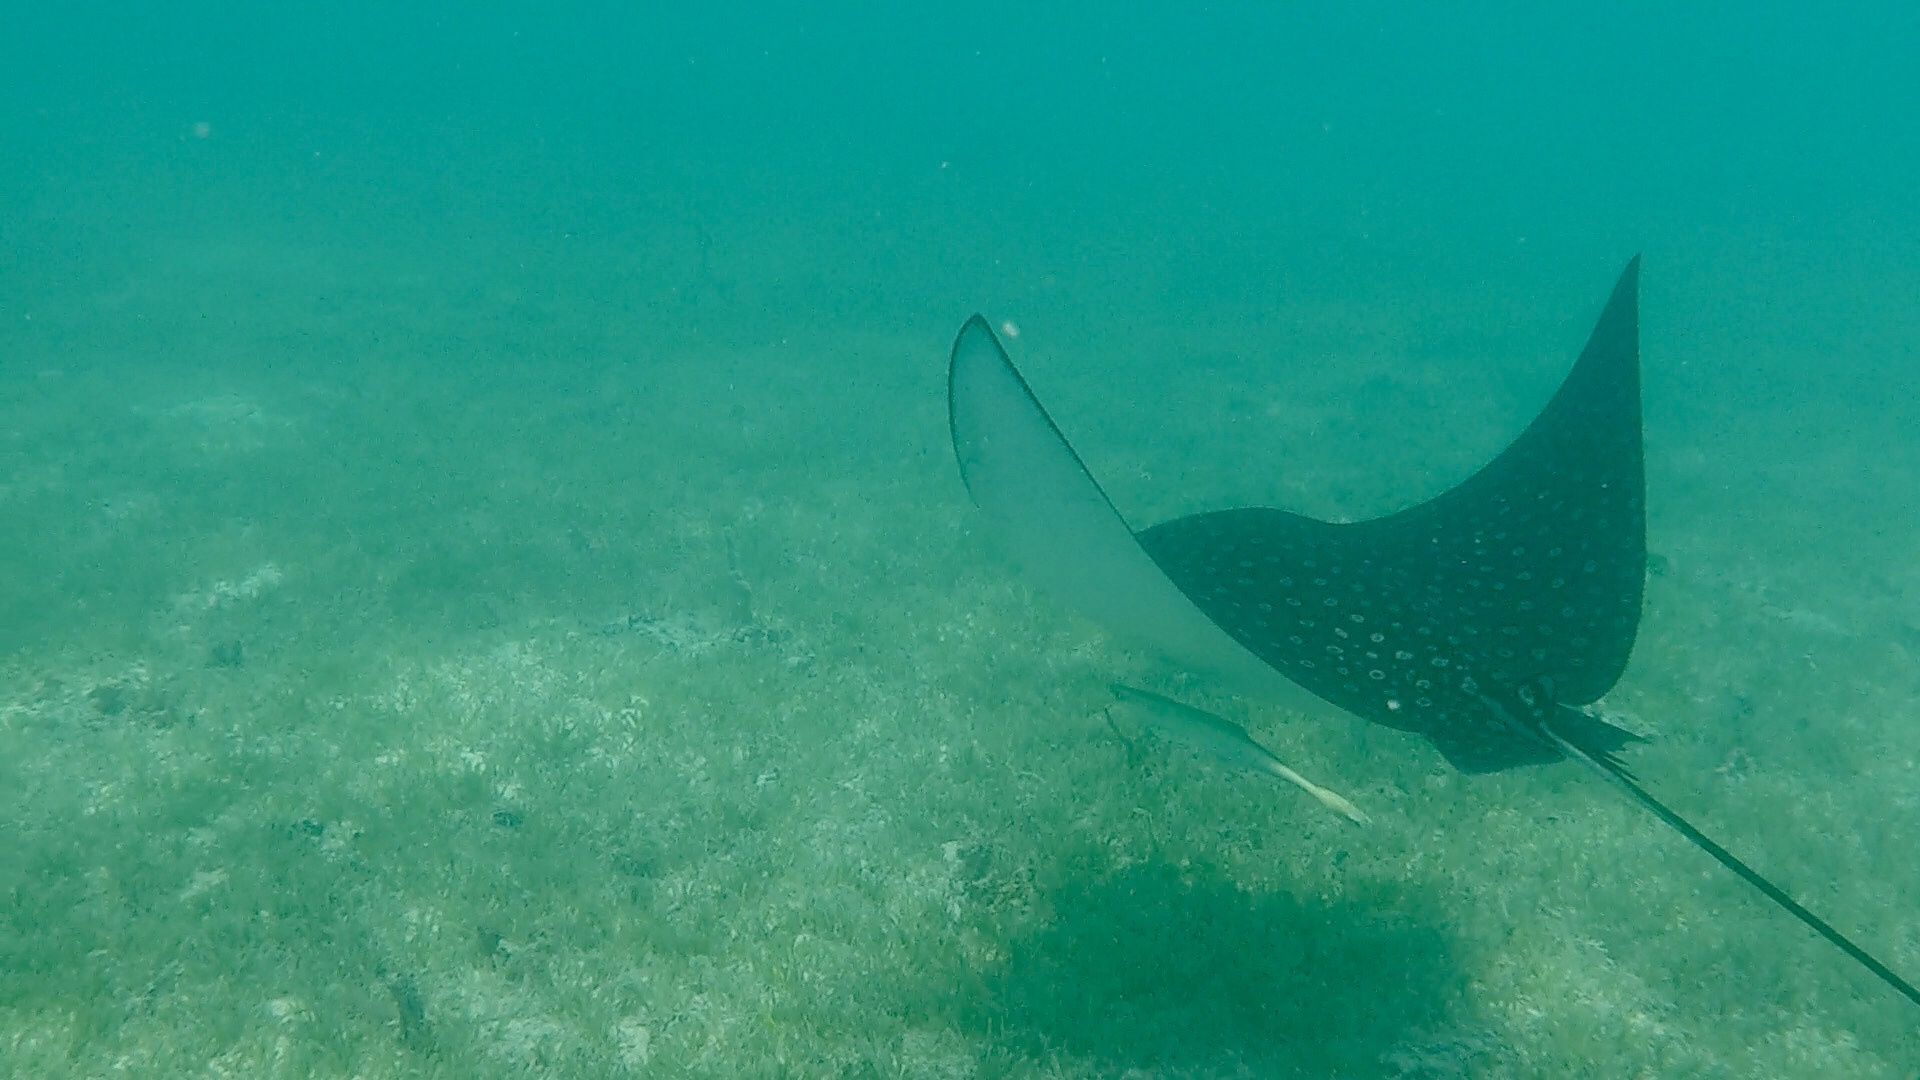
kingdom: Animalia
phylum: Chordata
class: Elasmobranchii
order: Myliobatiformes
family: Myliobatidae
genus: Aetobatus
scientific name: Aetobatus narinari
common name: Spotted eagle ray
